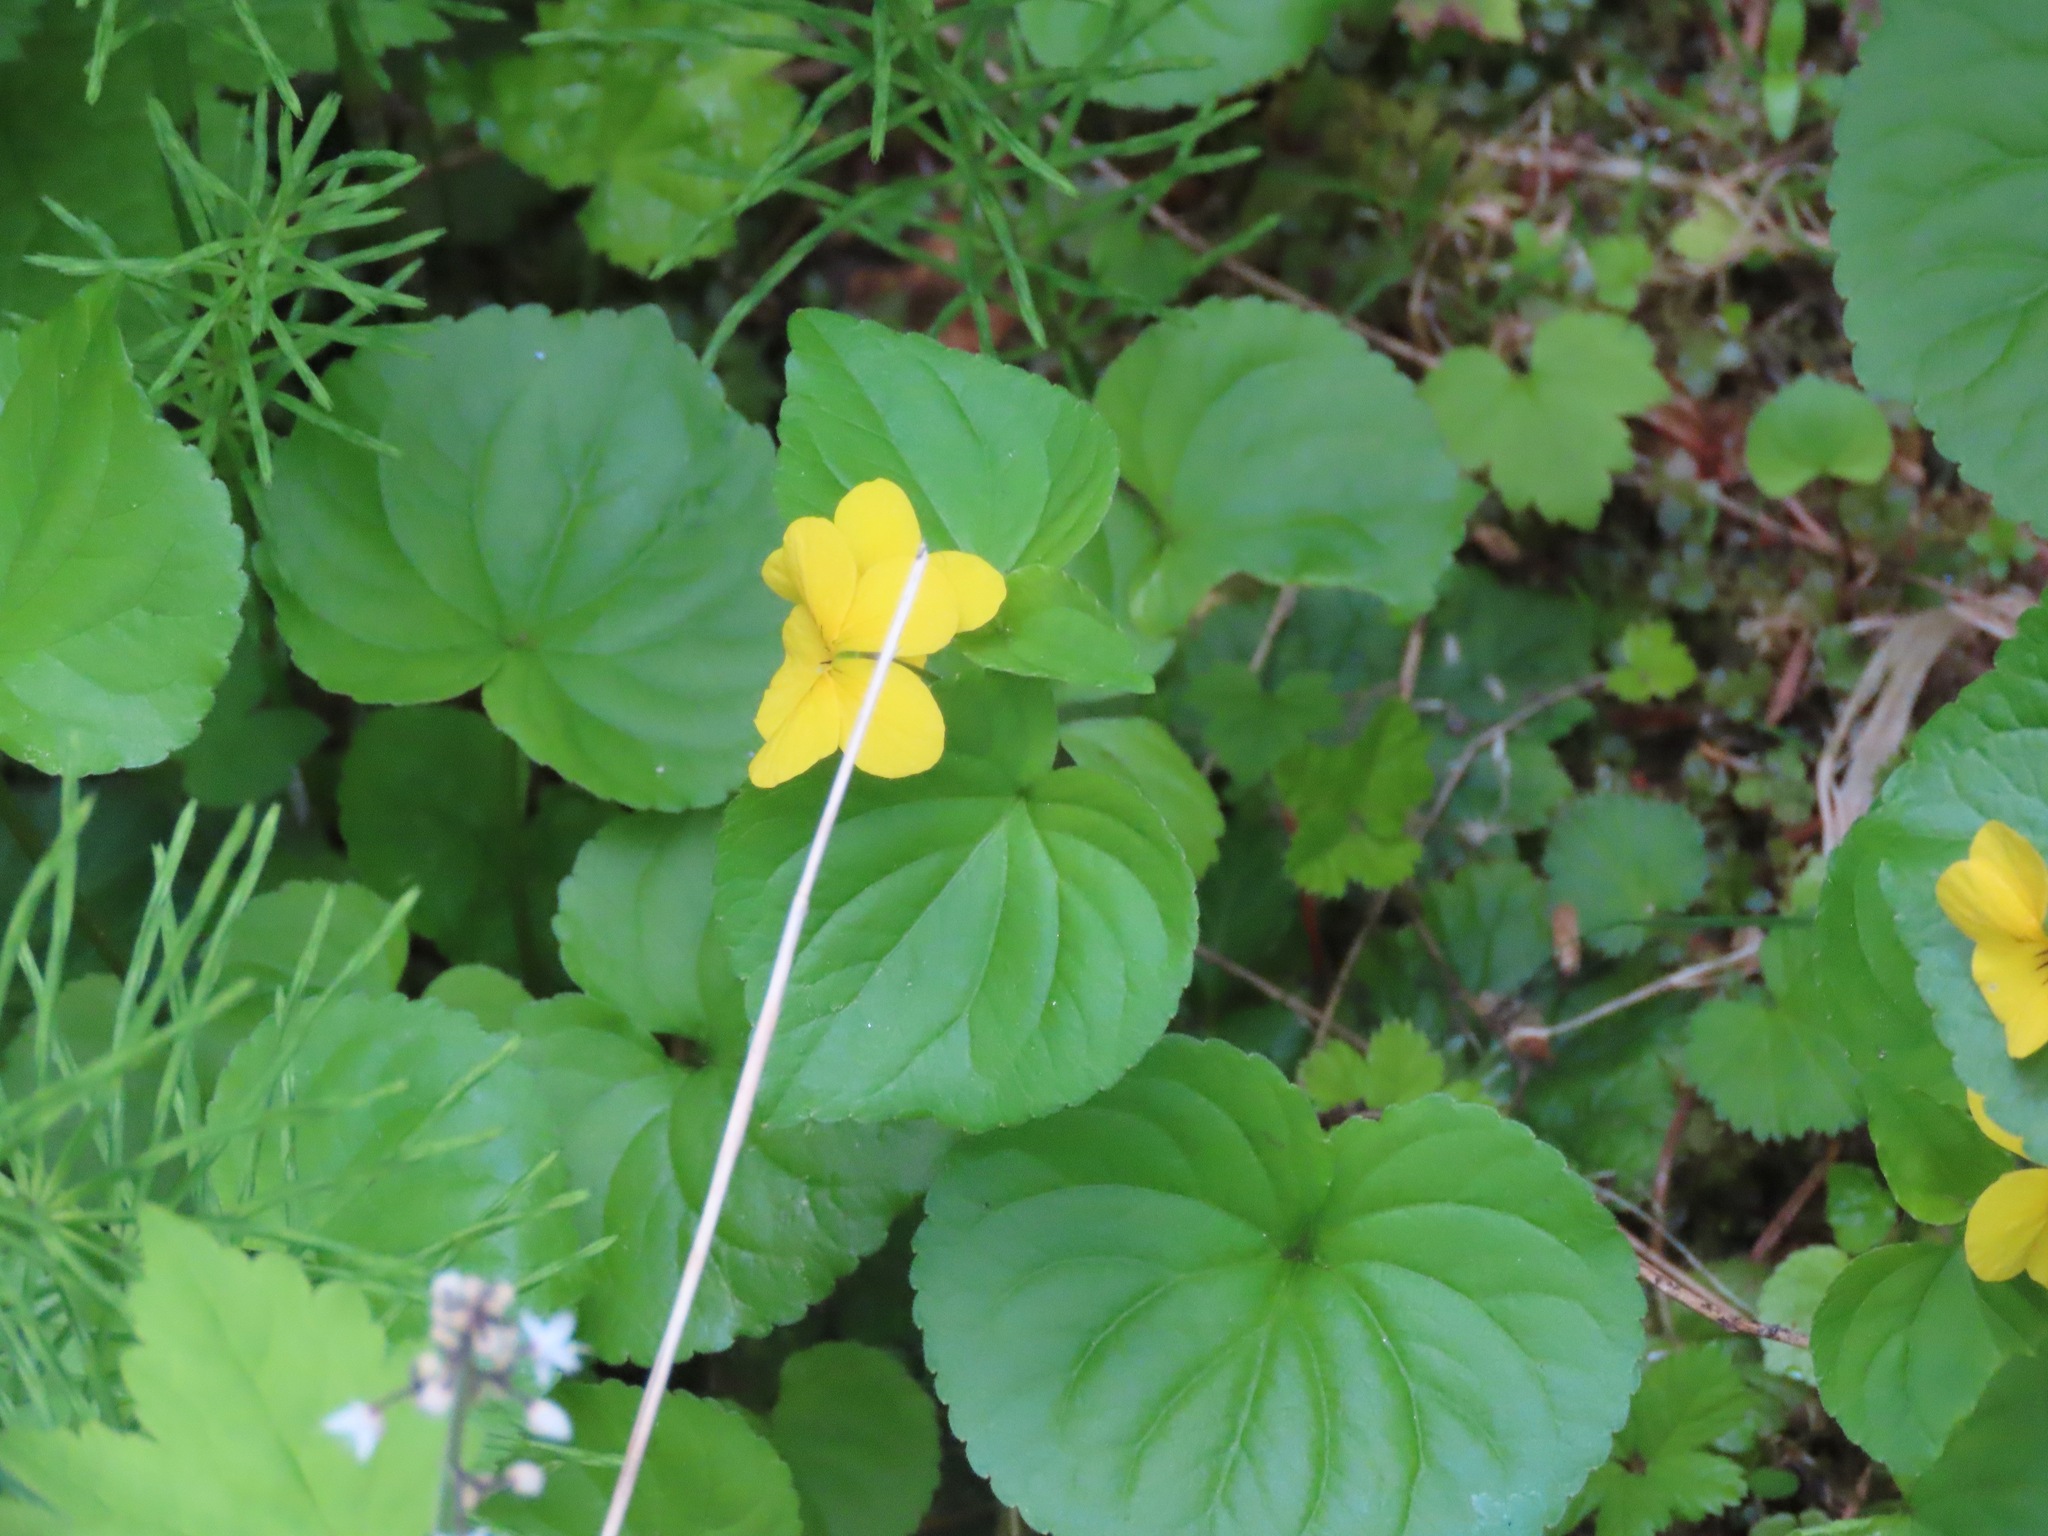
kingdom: Plantae
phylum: Tracheophyta
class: Magnoliopsida
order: Malpighiales
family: Violaceae
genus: Viola
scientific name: Viola glabella
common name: Stream violet
